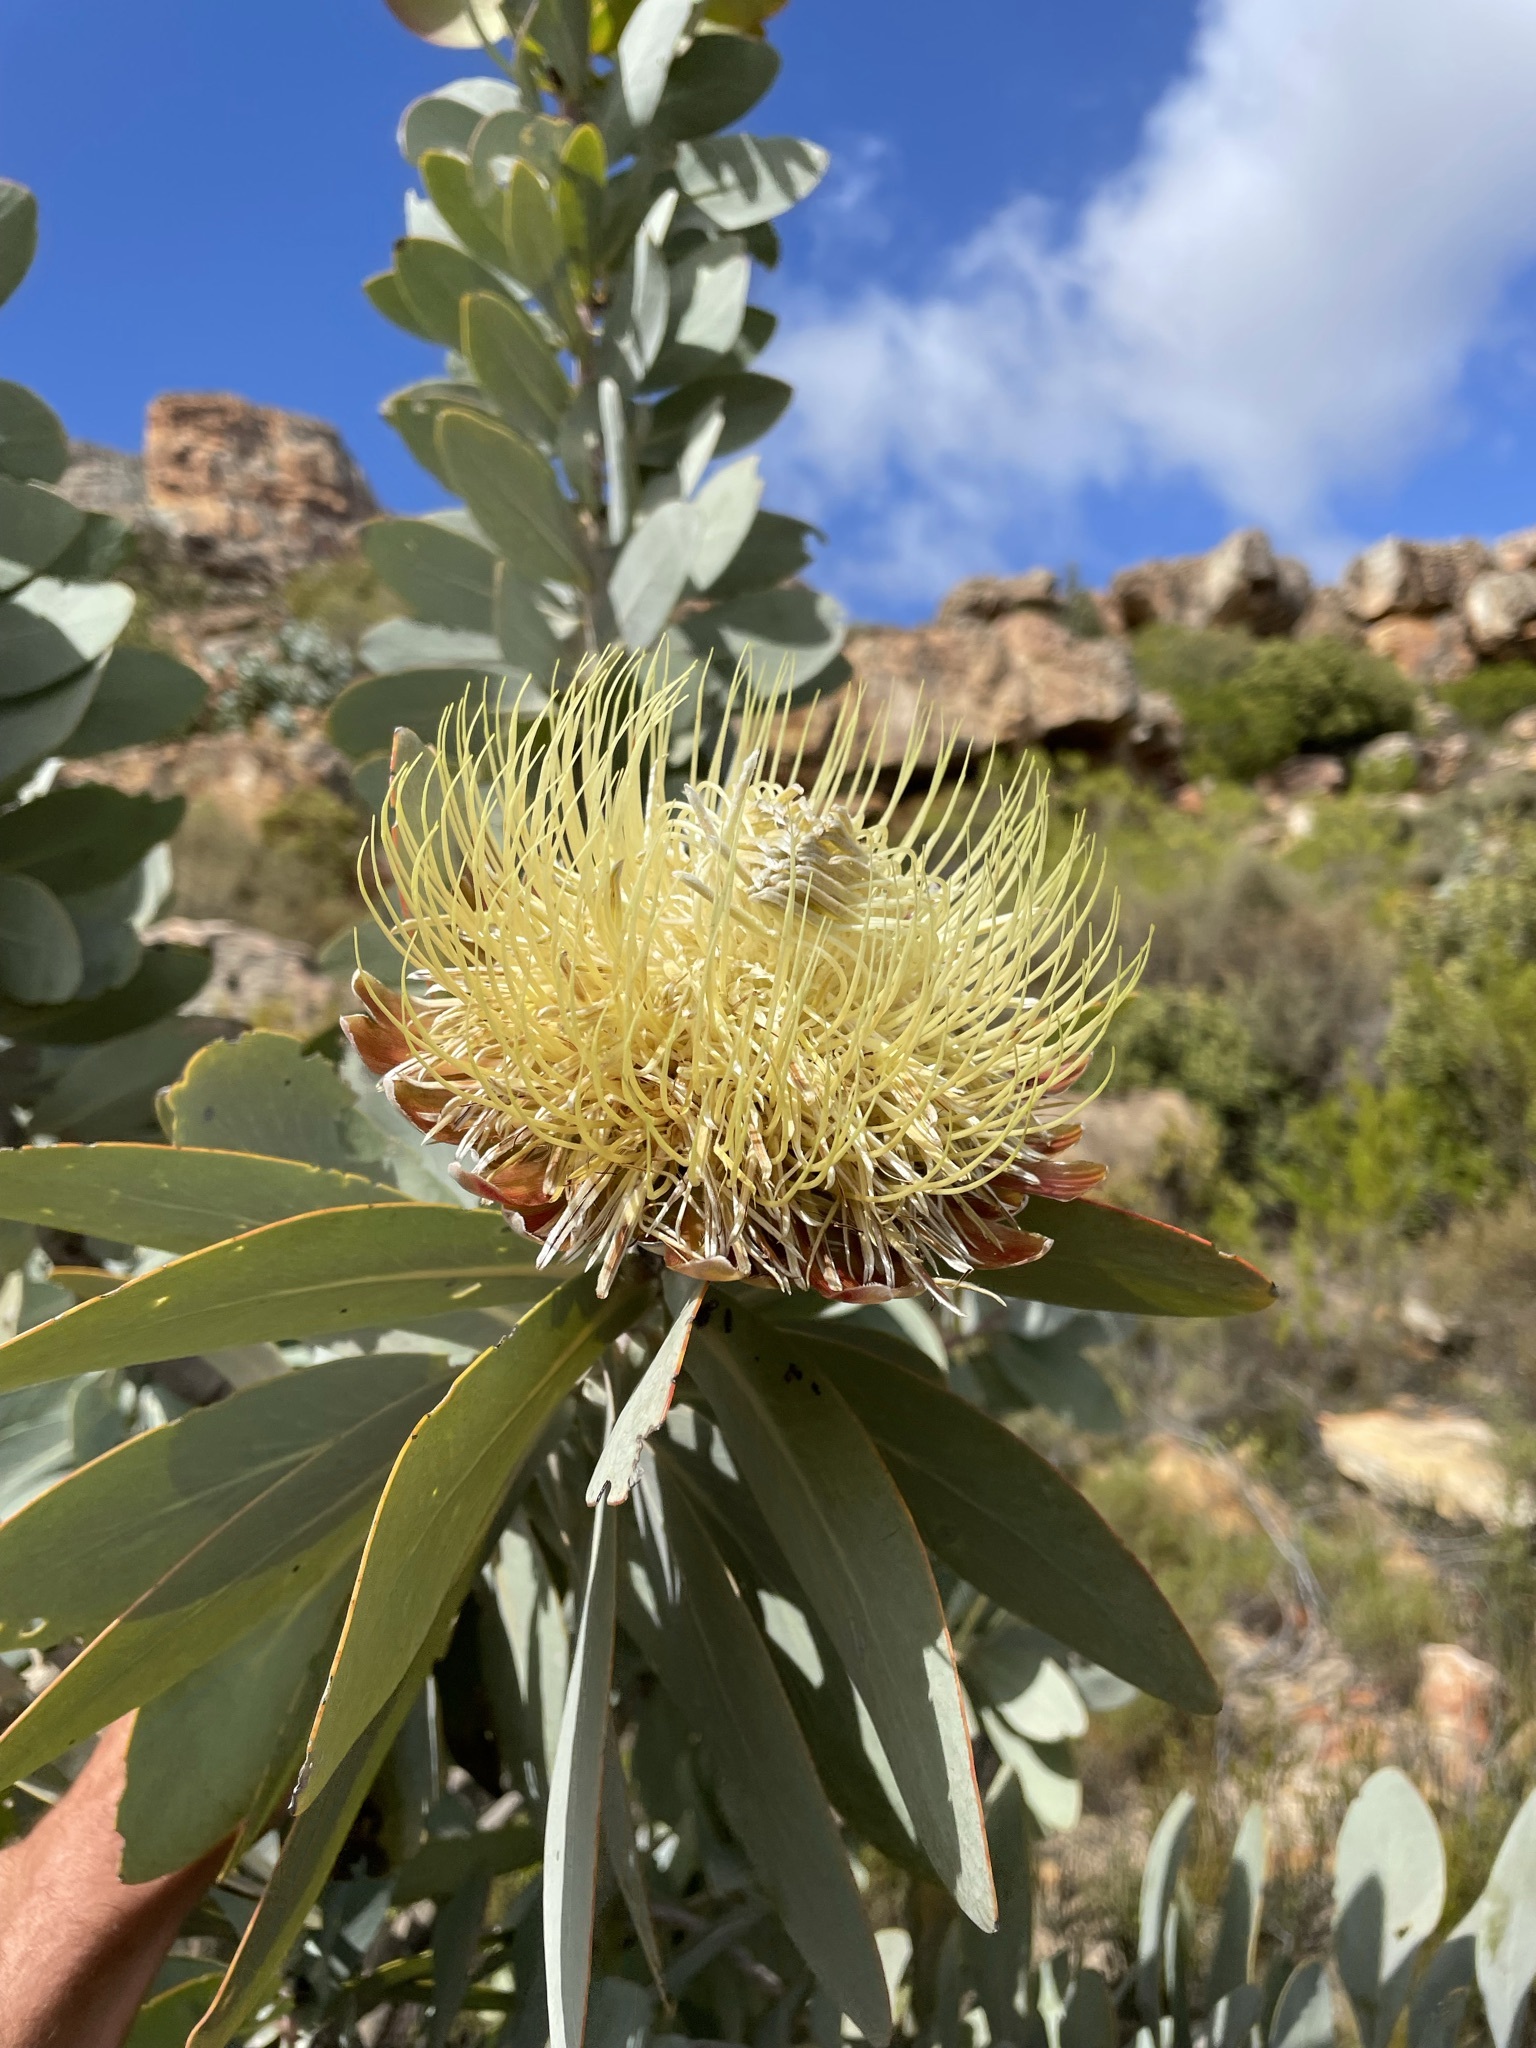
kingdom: Plantae
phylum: Tracheophyta
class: Magnoliopsida
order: Proteales
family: Proteaceae
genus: Protea
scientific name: Protea nitida
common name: Tree protea
